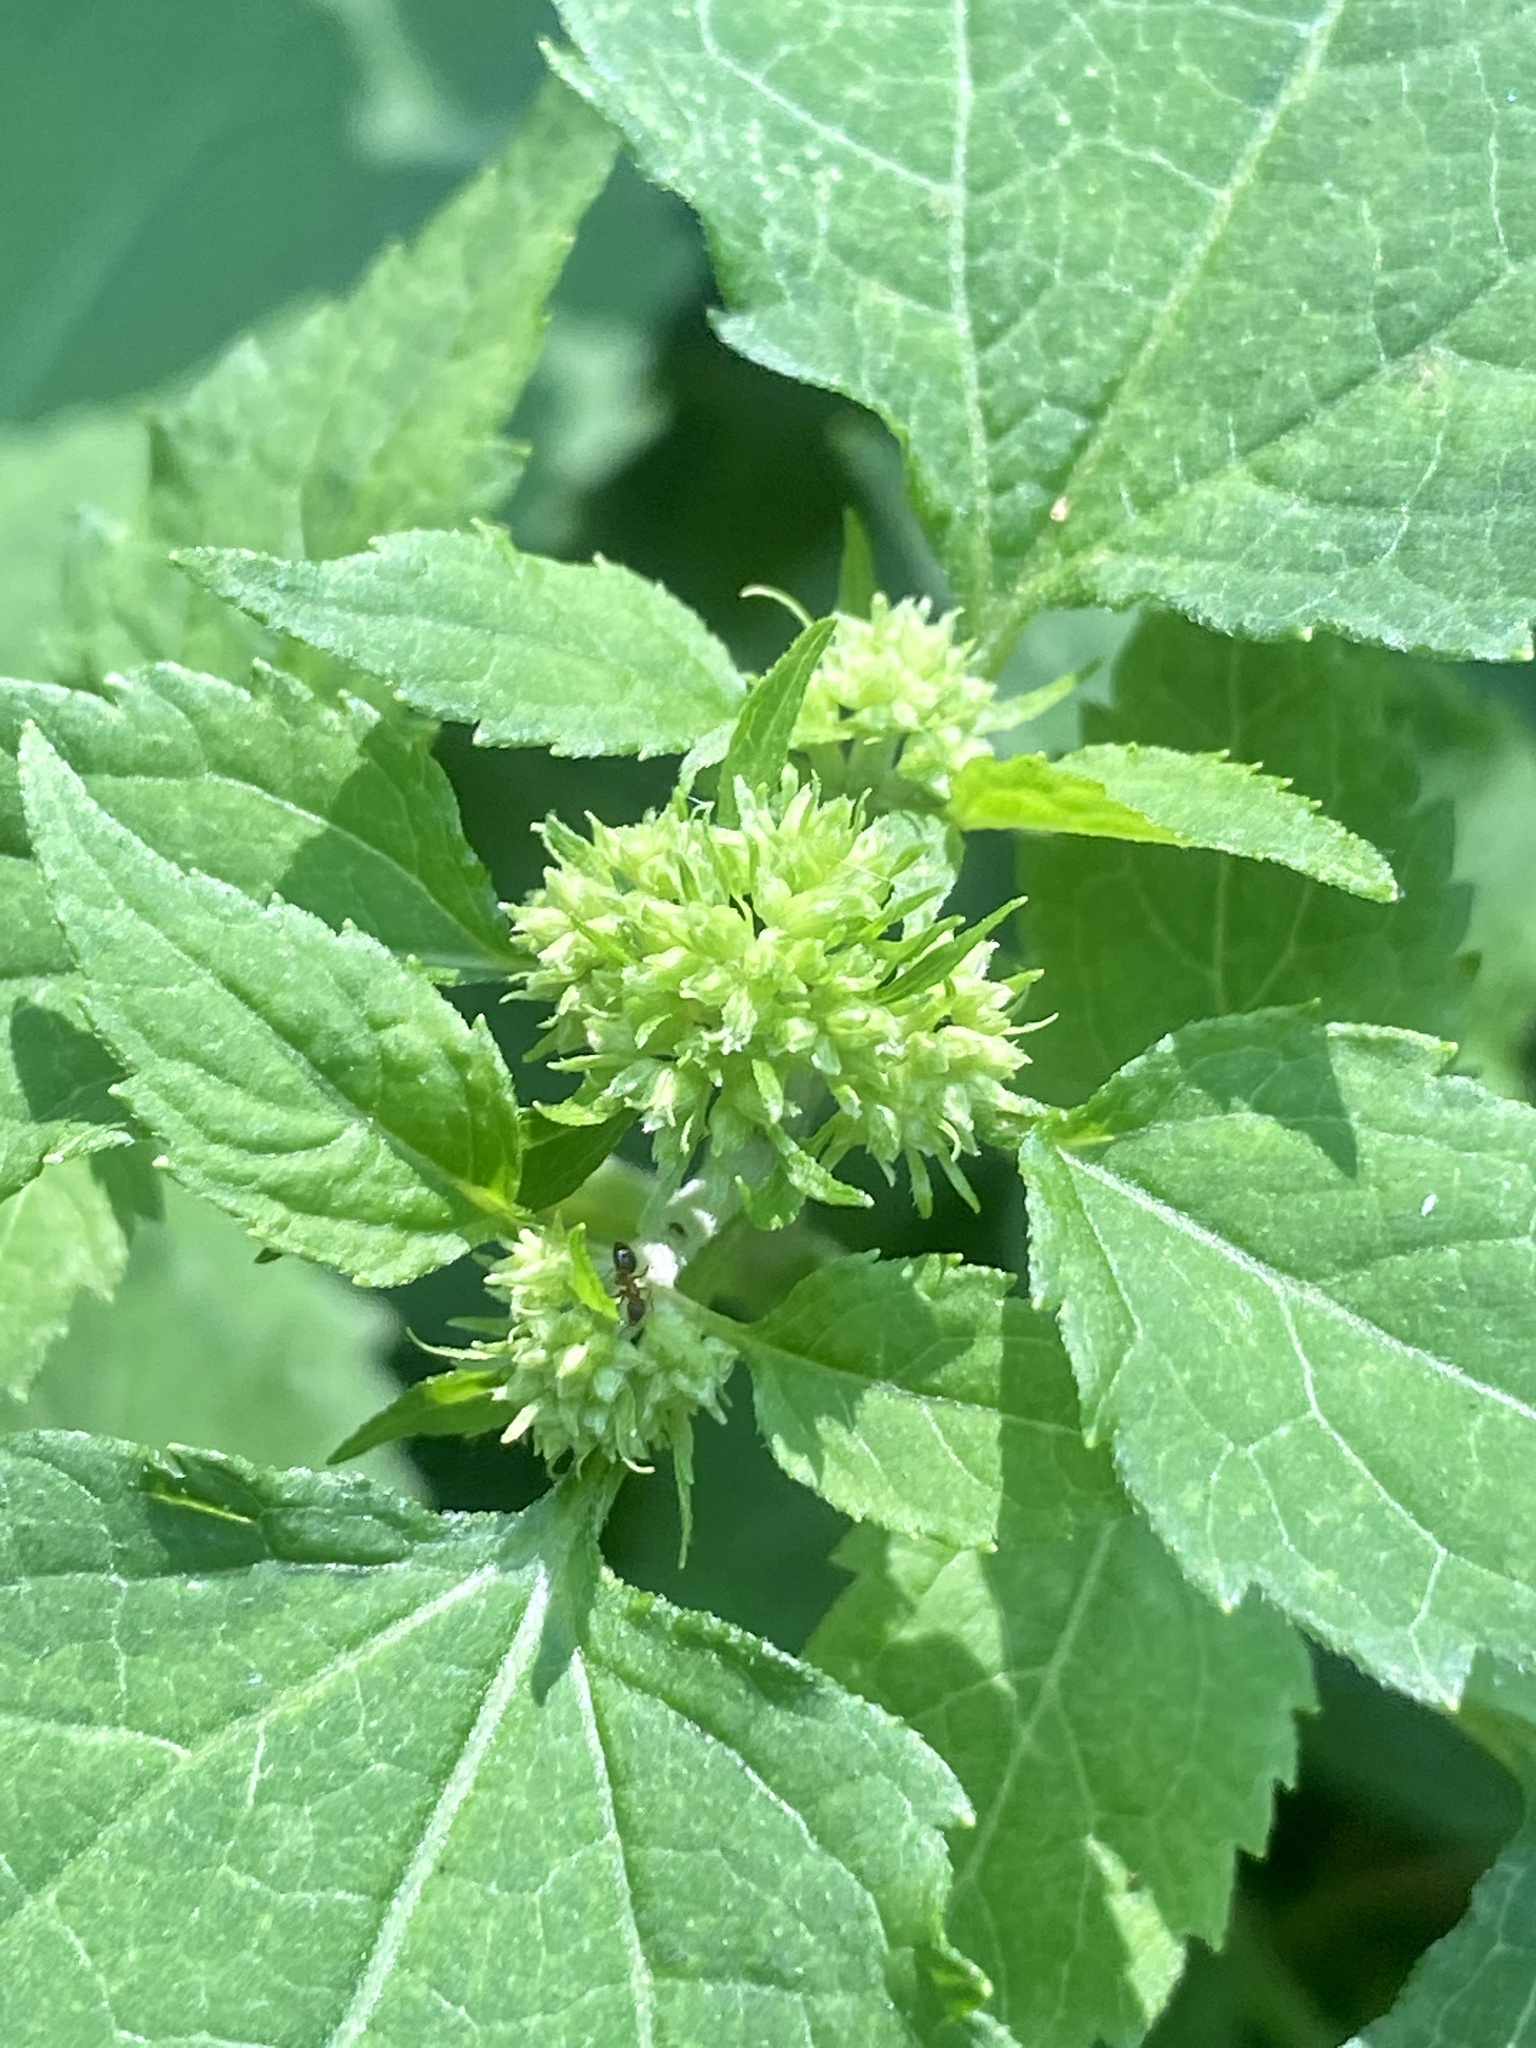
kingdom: Plantae
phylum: Tracheophyta
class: Magnoliopsida
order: Asterales
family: Asteraceae
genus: Ageratina
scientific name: Ageratina altissima
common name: White snakeroot
